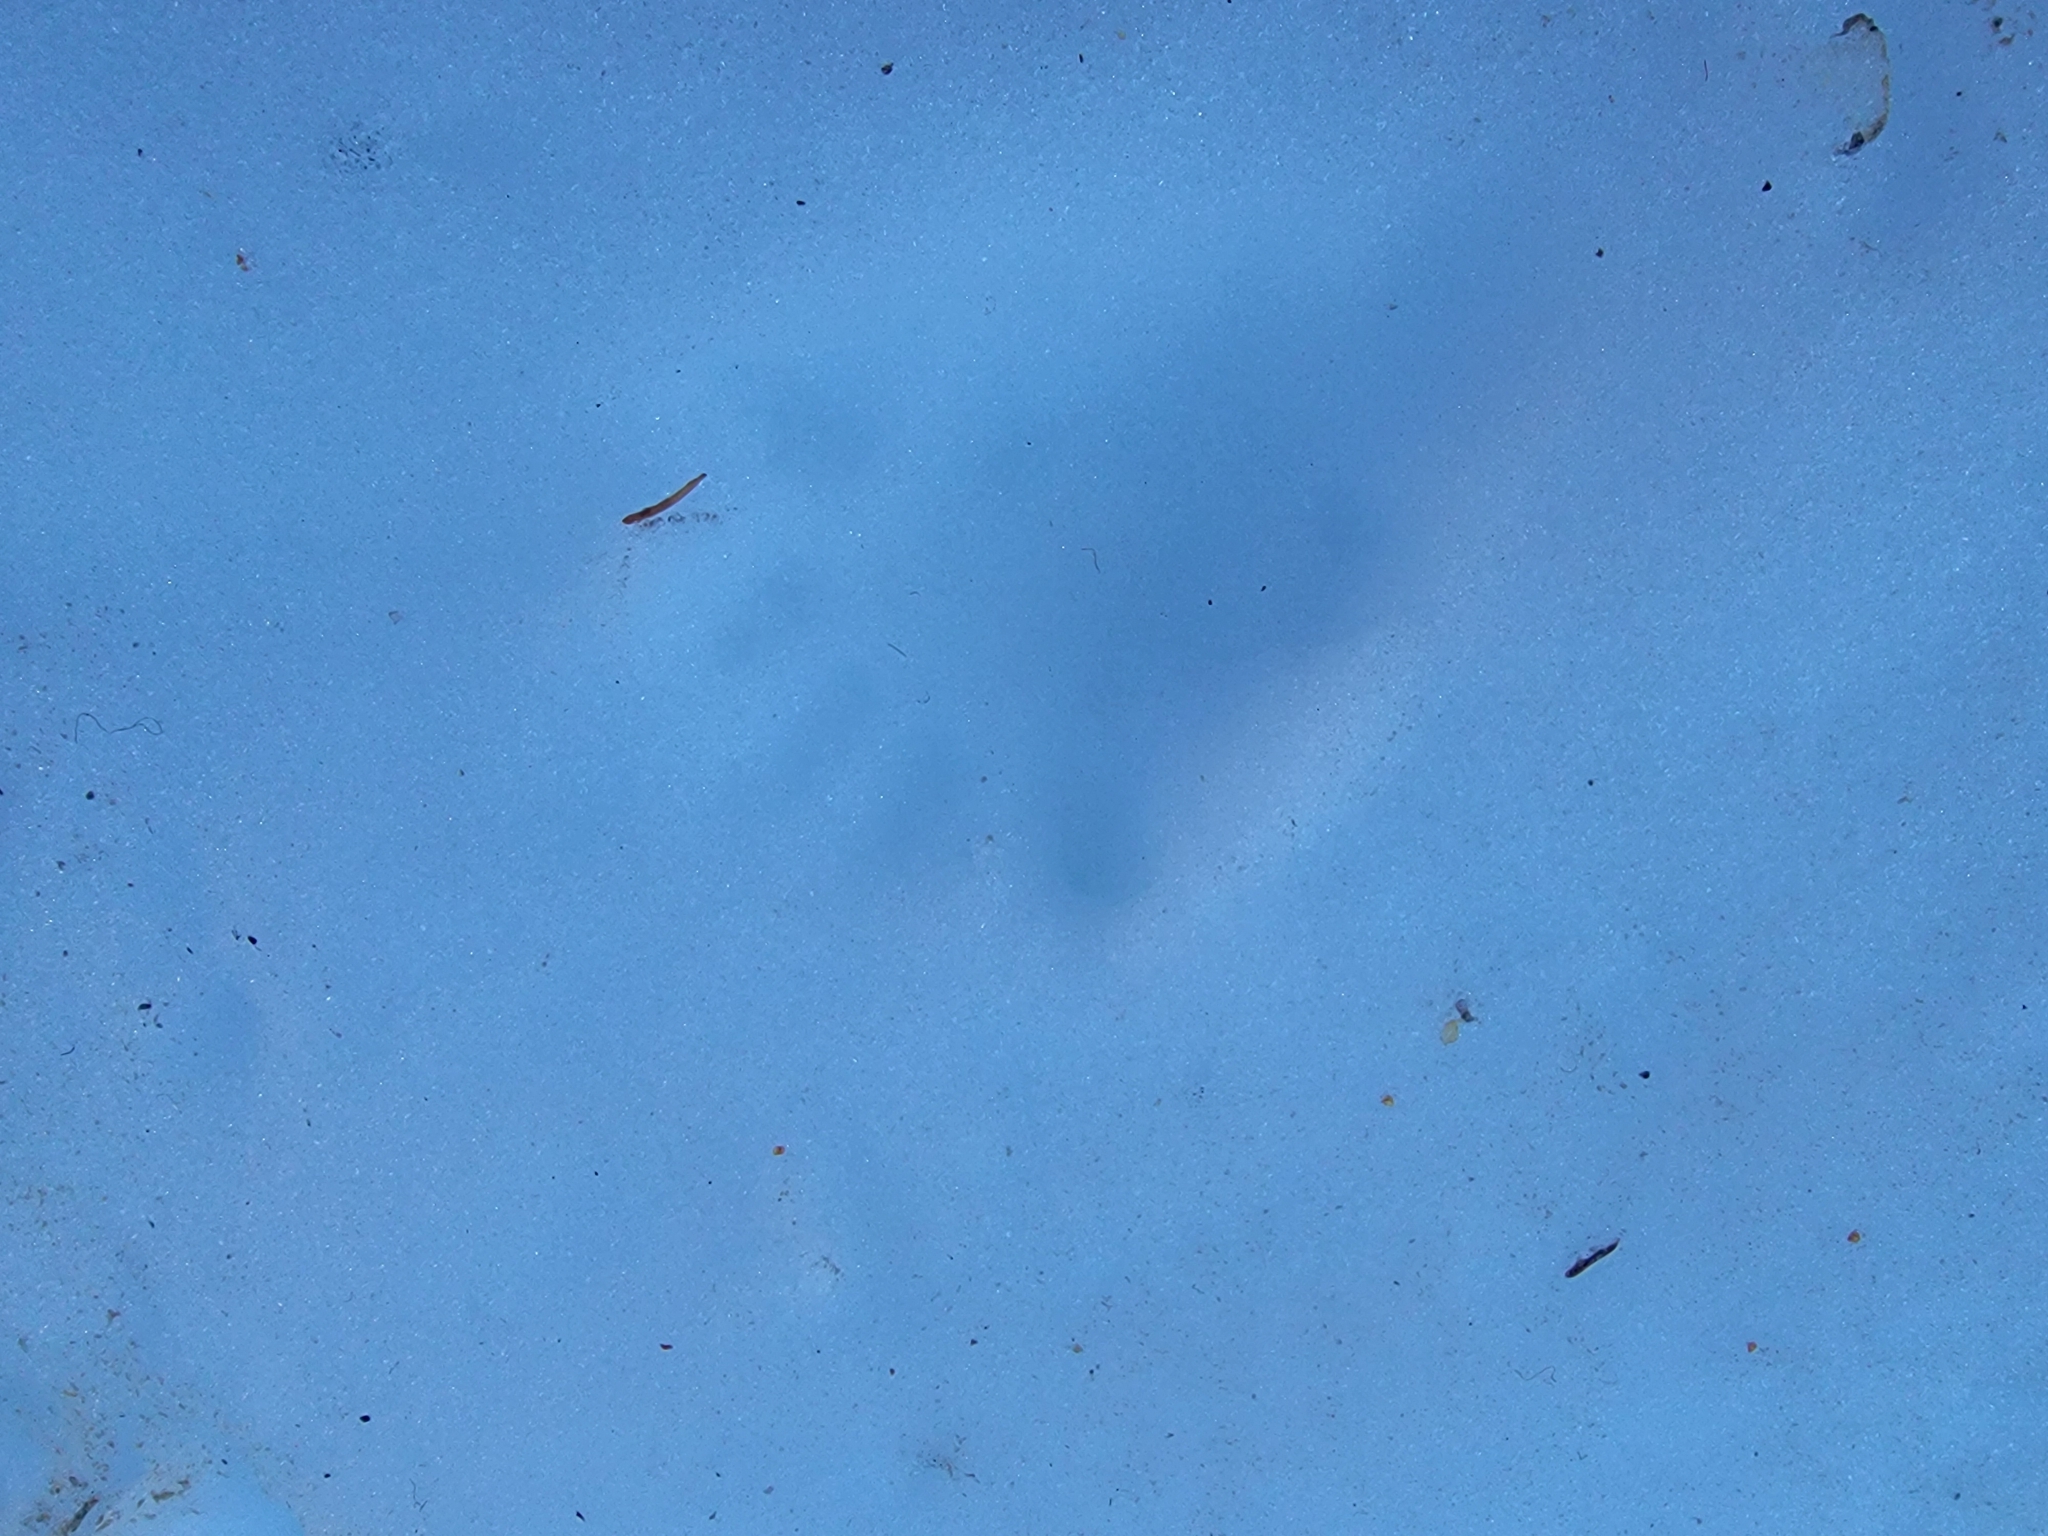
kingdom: Animalia
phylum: Chordata
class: Mammalia
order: Rodentia
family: Sciuridae
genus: Marmota
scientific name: Marmota caligata
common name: Hoary marmot
